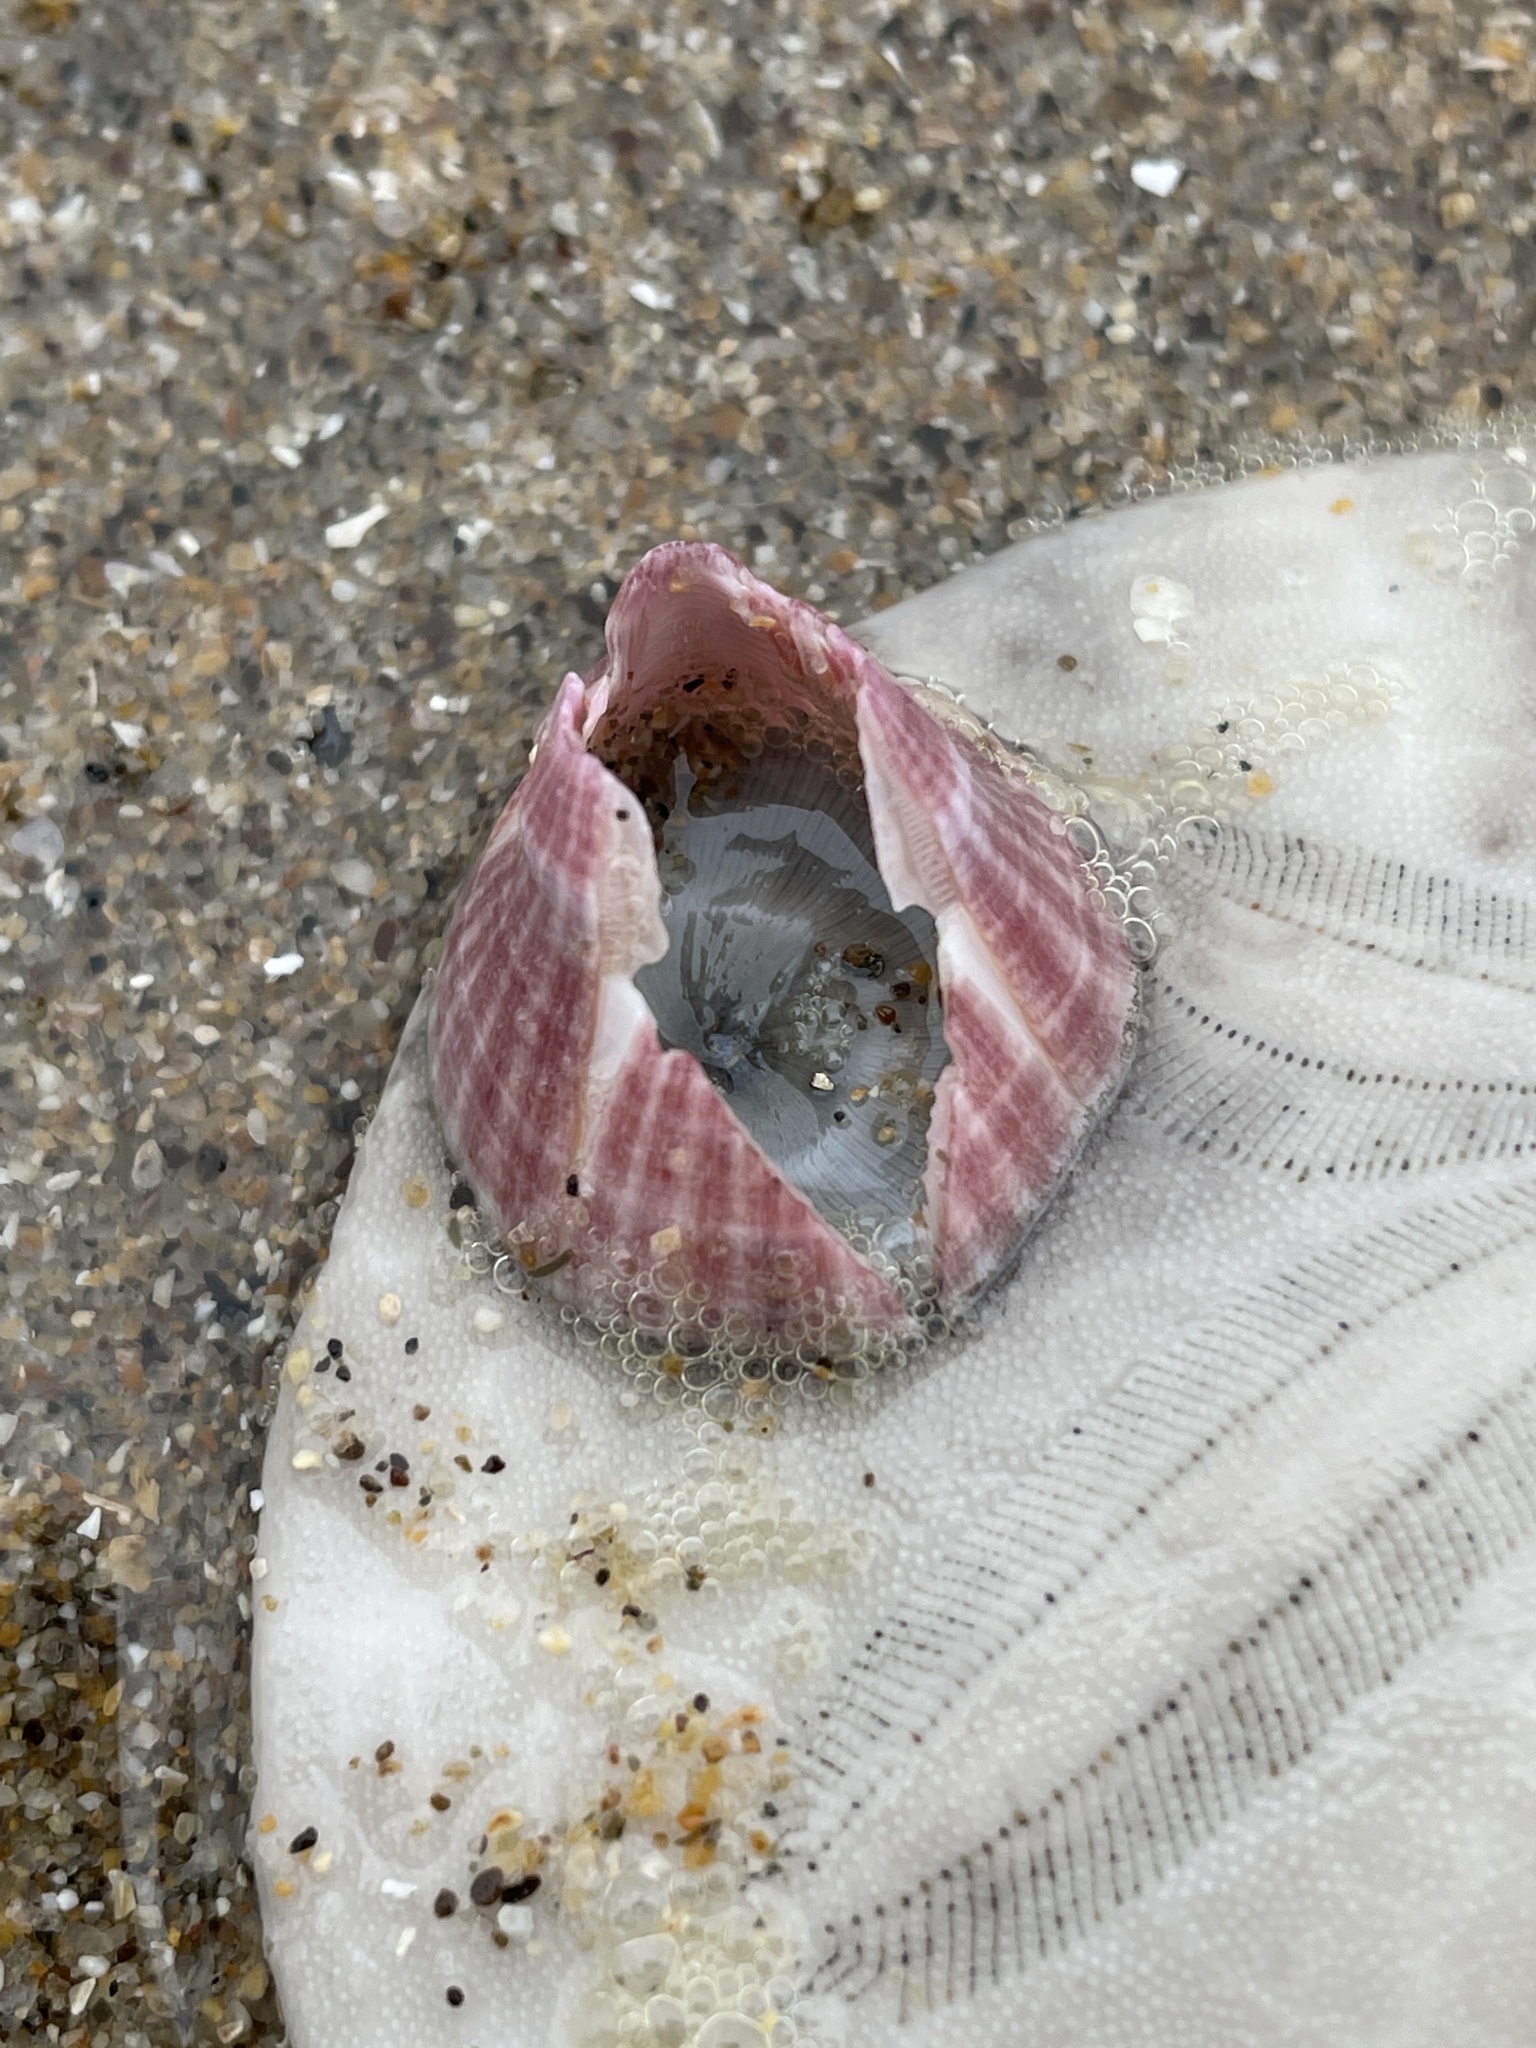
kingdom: Animalia
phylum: Arthropoda
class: Maxillopoda
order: Sessilia
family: Balanidae
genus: Paraconcavus
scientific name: Paraconcavus pacificus
